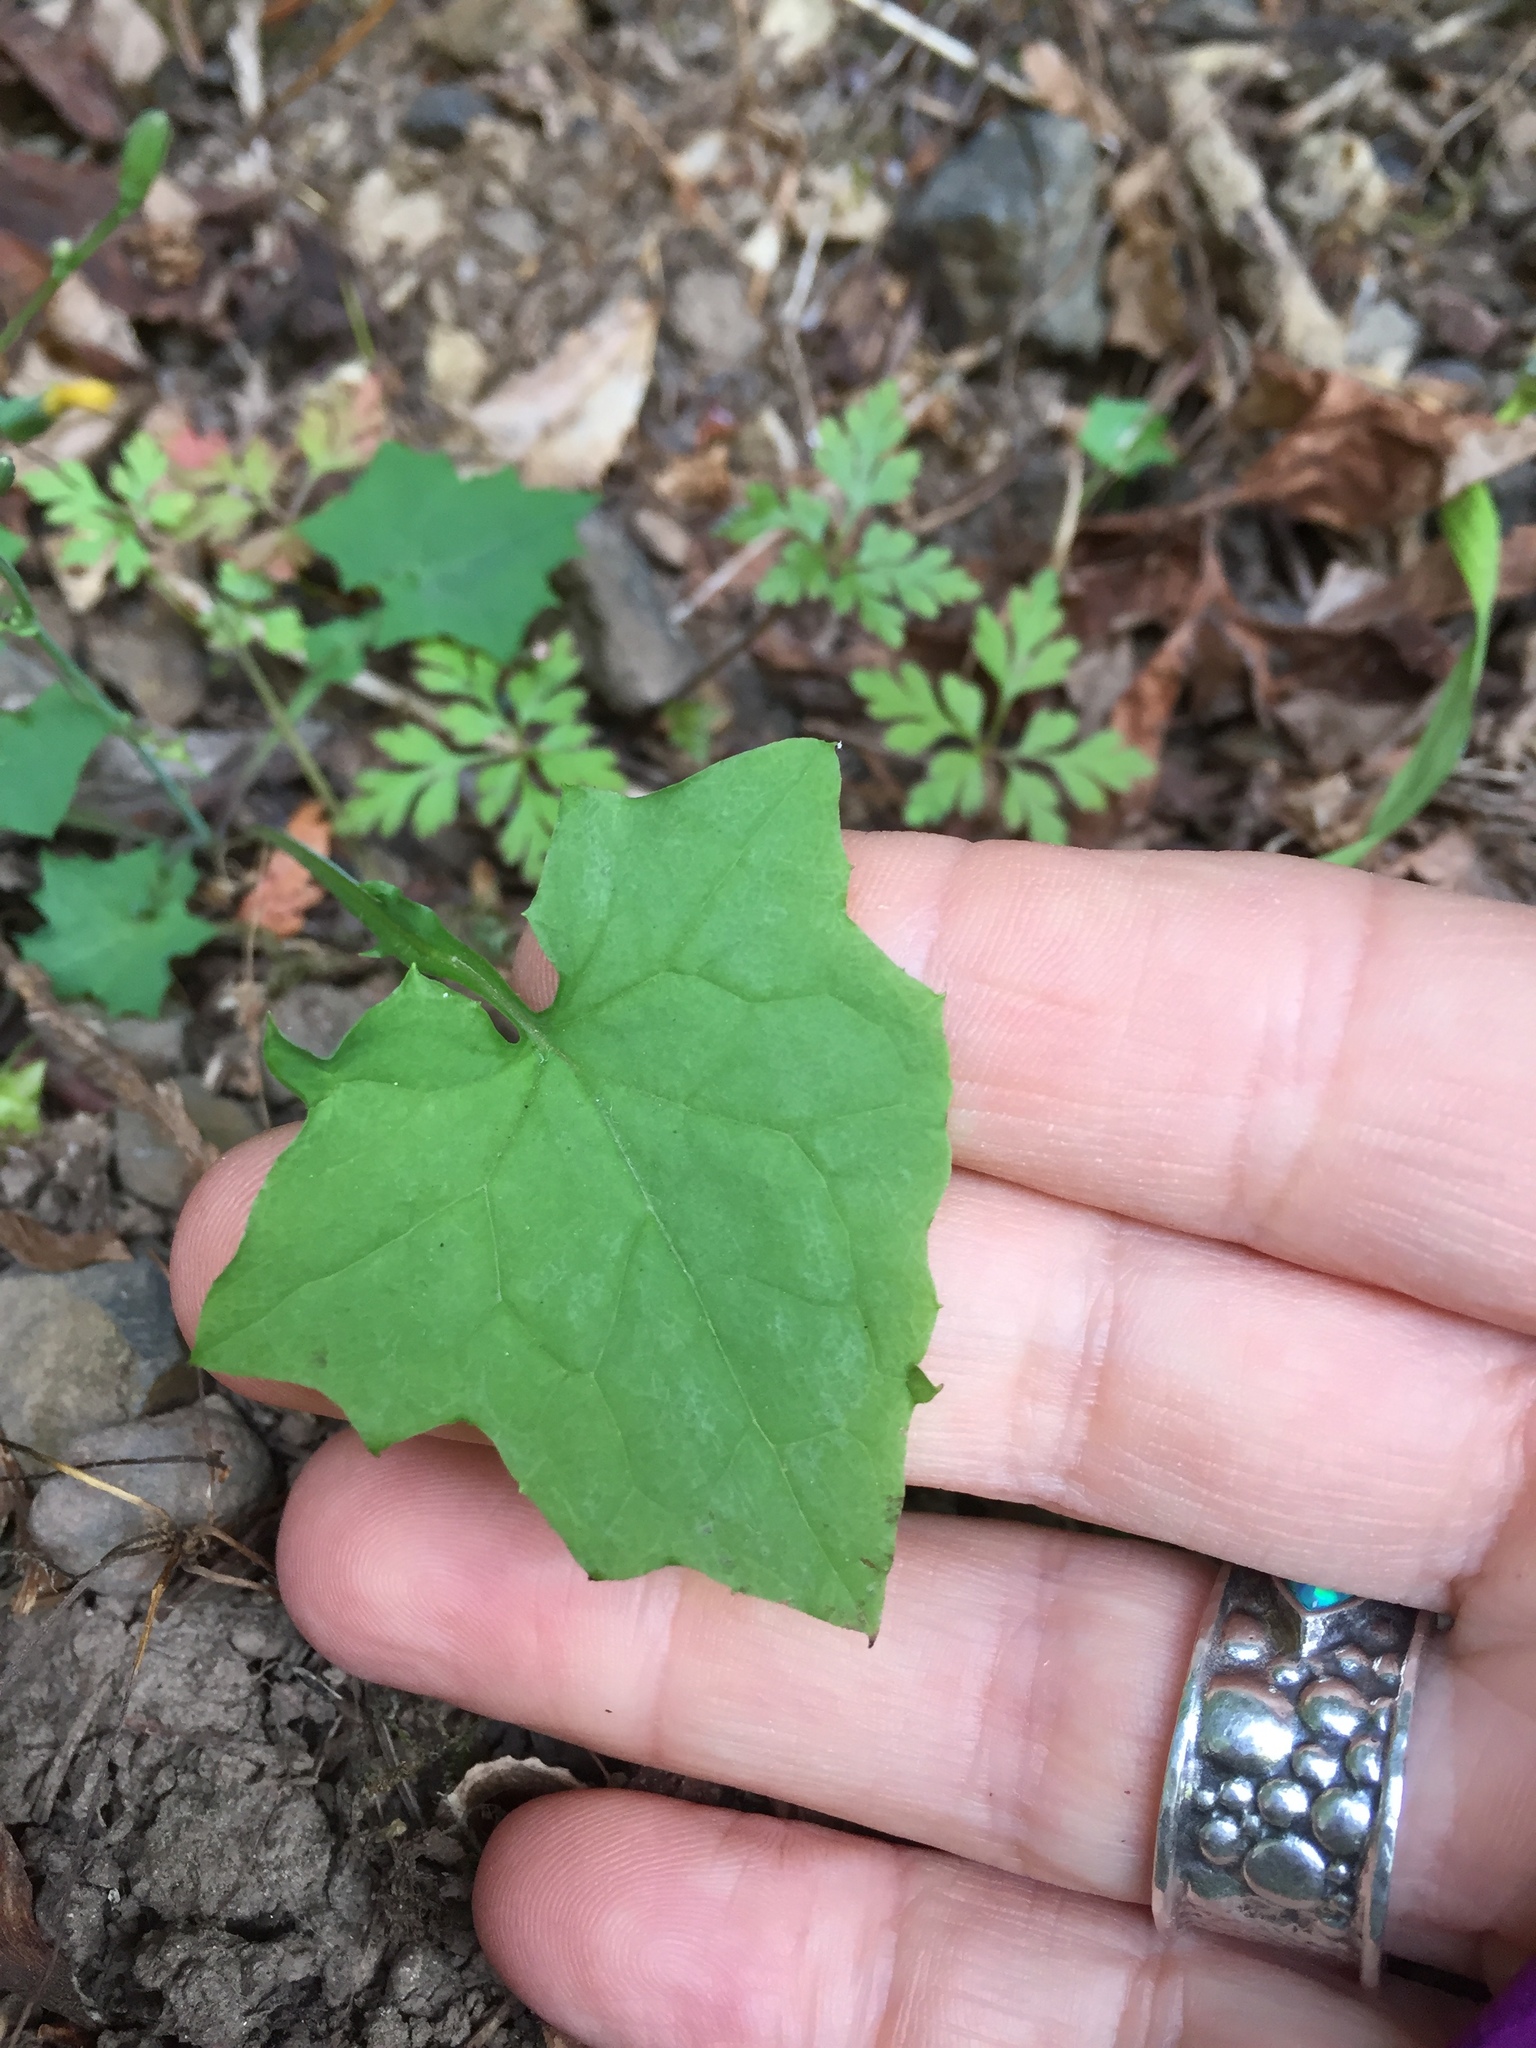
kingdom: Plantae
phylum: Tracheophyta
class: Magnoliopsida
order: Asterales
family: Asteraceae
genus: Mycelis
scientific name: Mycelis muralis
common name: Wall lettuce
